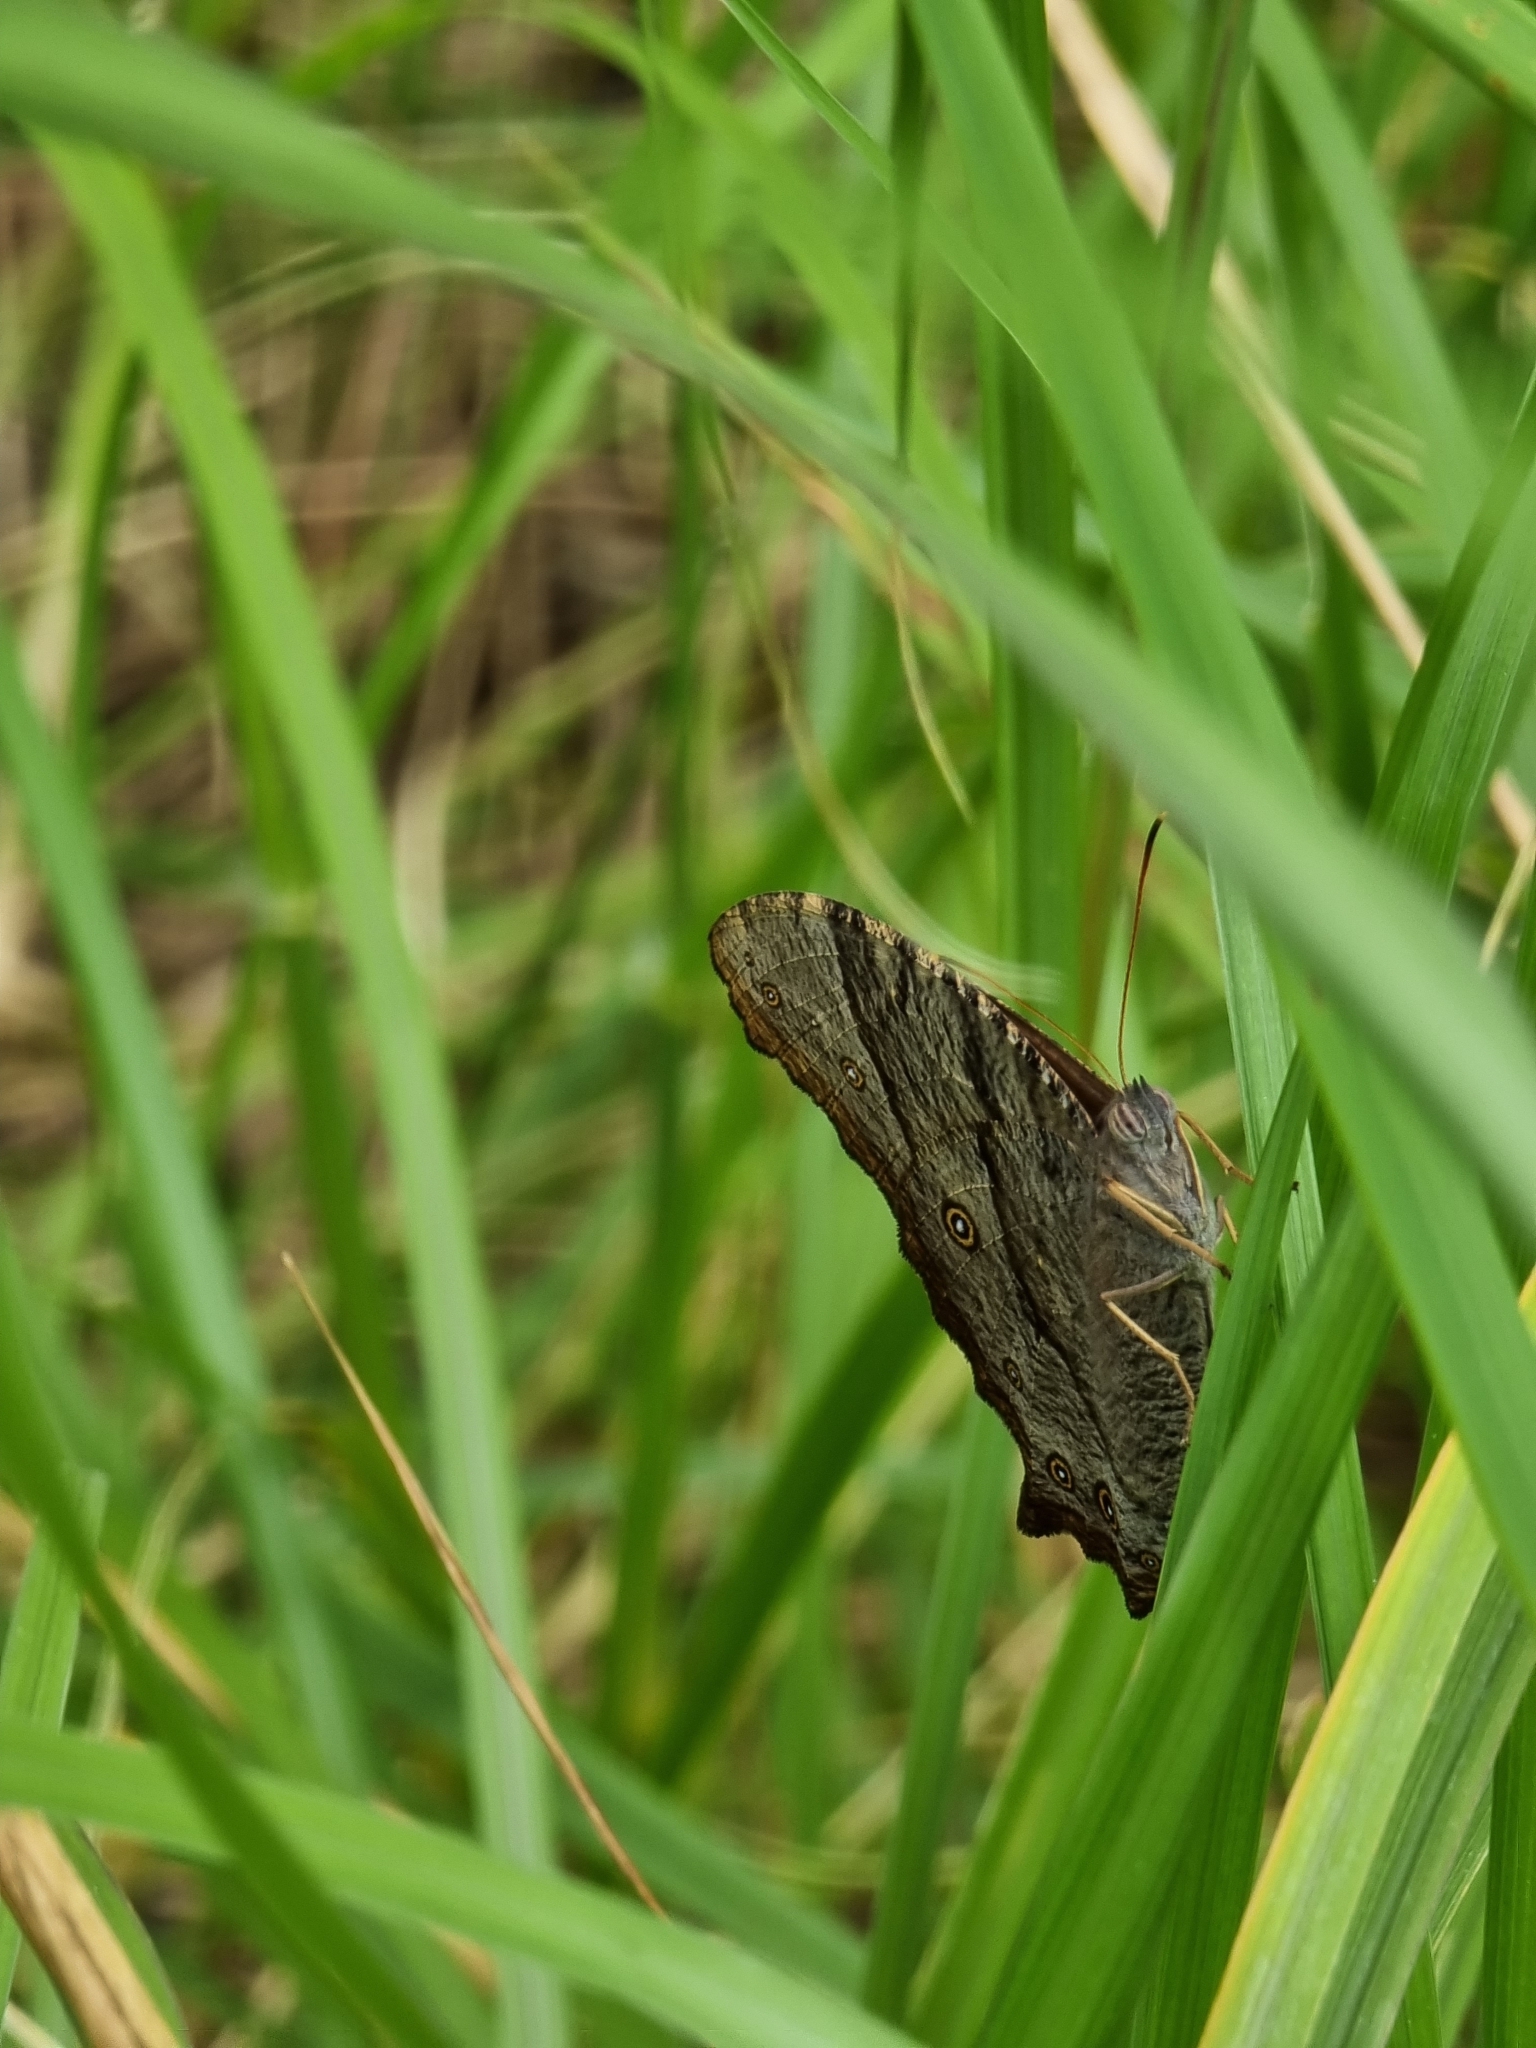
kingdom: Animalia
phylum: Arthropoda
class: Insecta
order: Lepidoptera
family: Hesperiidae
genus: Suniana
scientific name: Suniana sunias
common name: Wide-brand grass-dart
